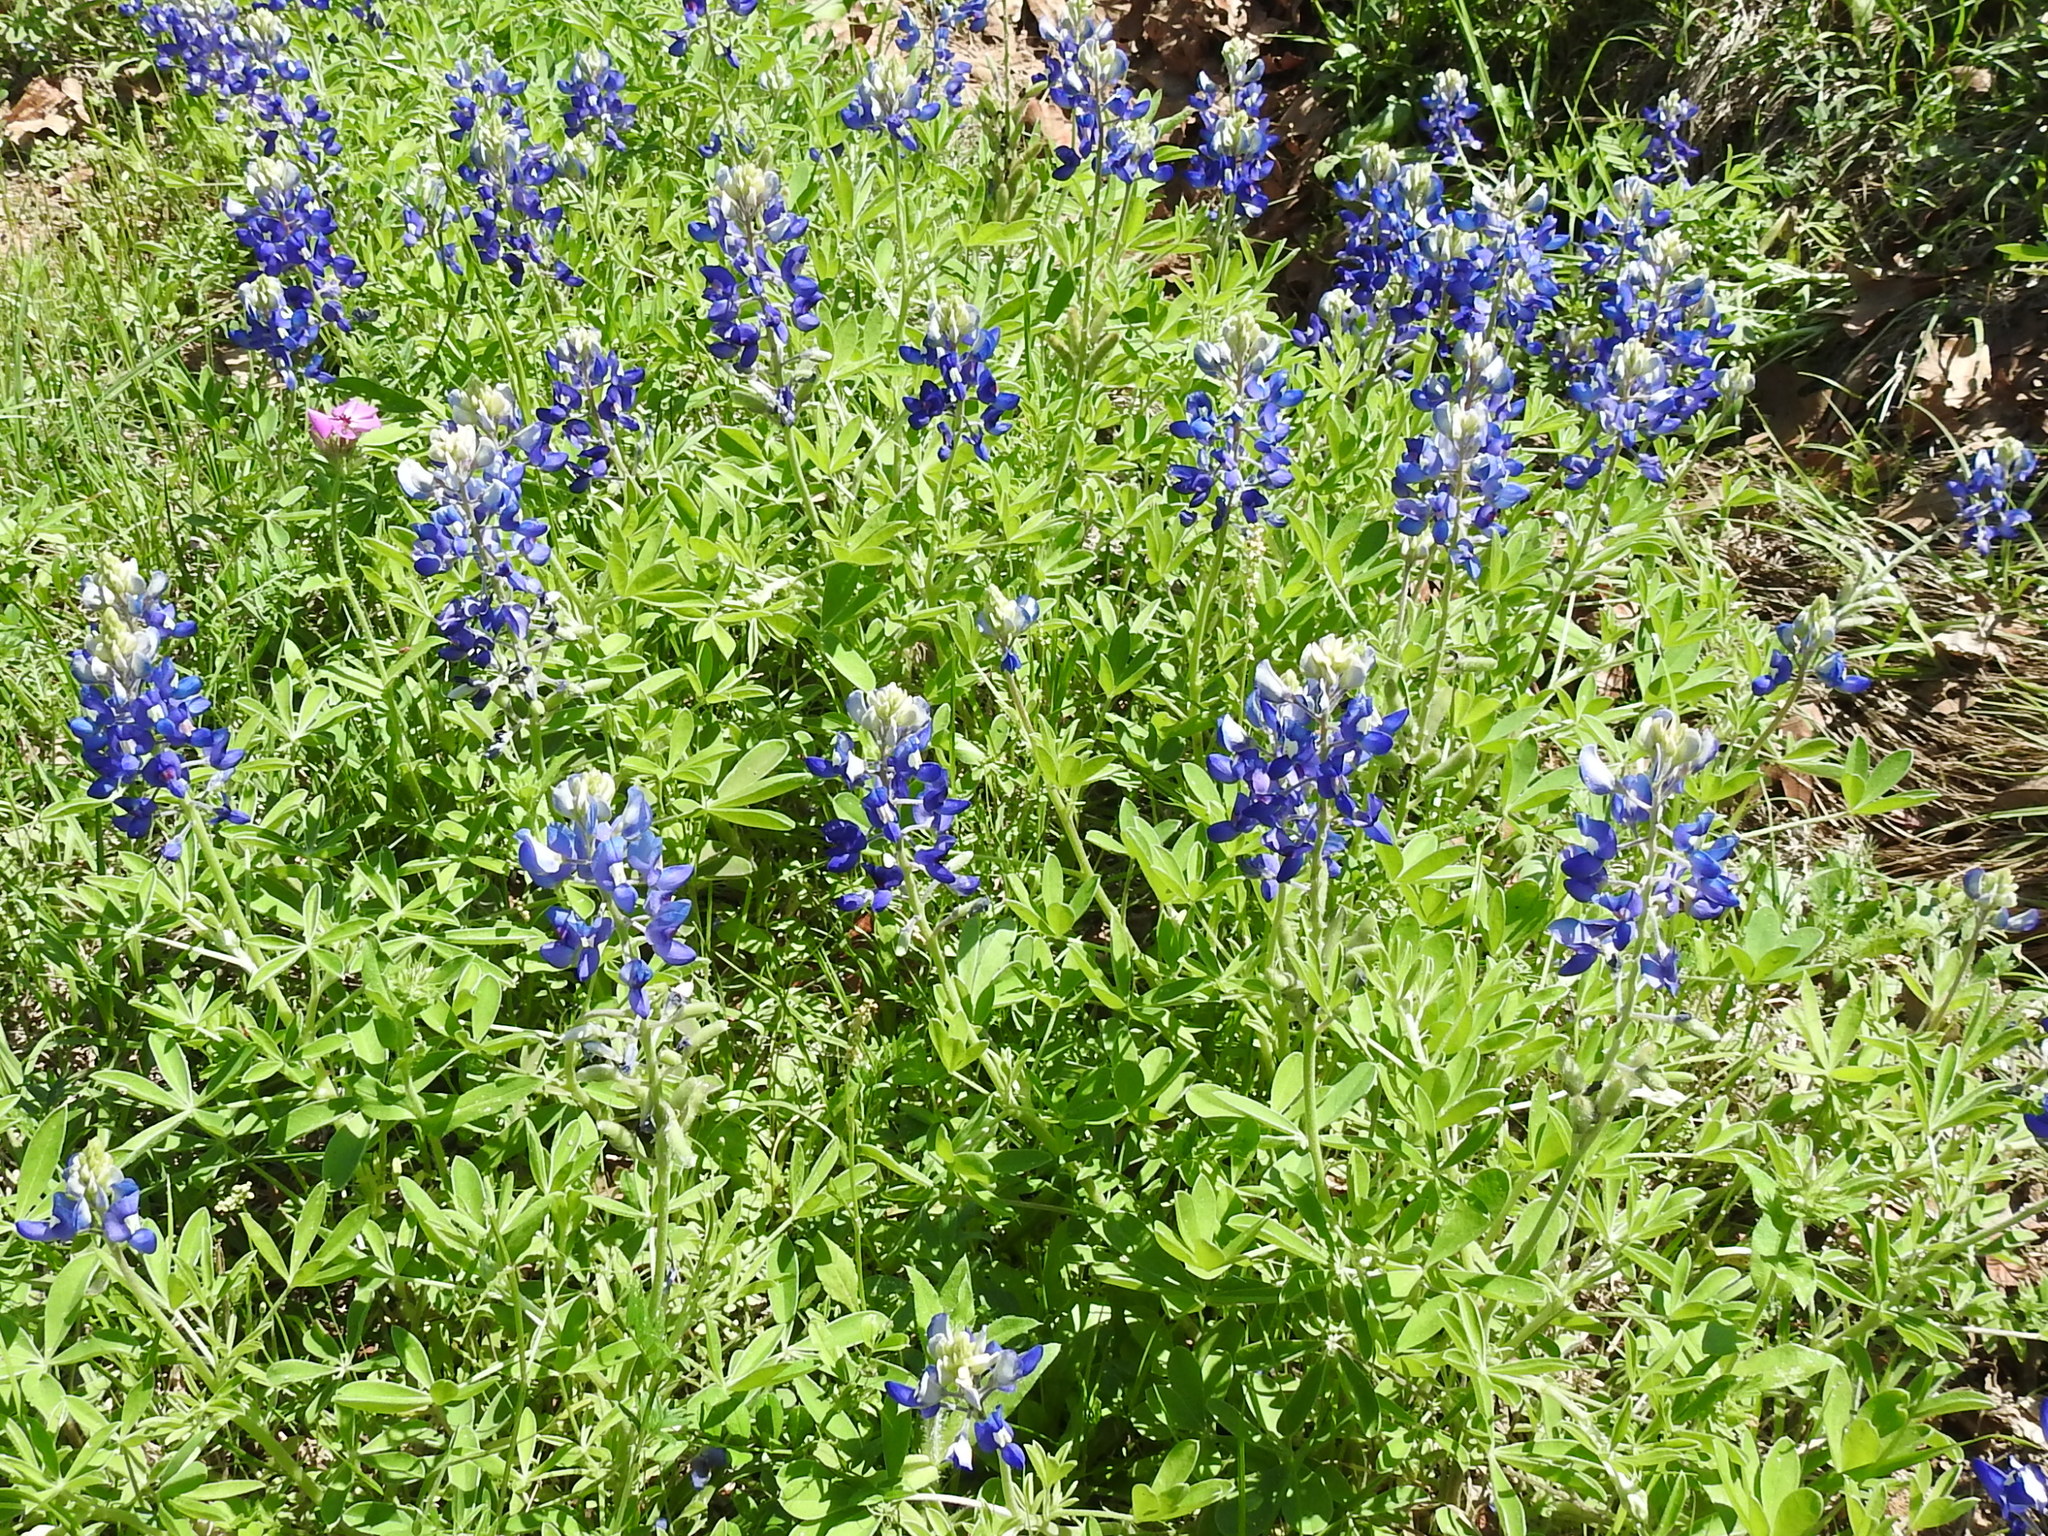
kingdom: Plantae
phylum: Tracheophyta
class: Magnoliopsida
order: Fabales
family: Fabaceae
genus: Lupinus
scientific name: Lupinus texensis
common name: Texas bluebonnet
